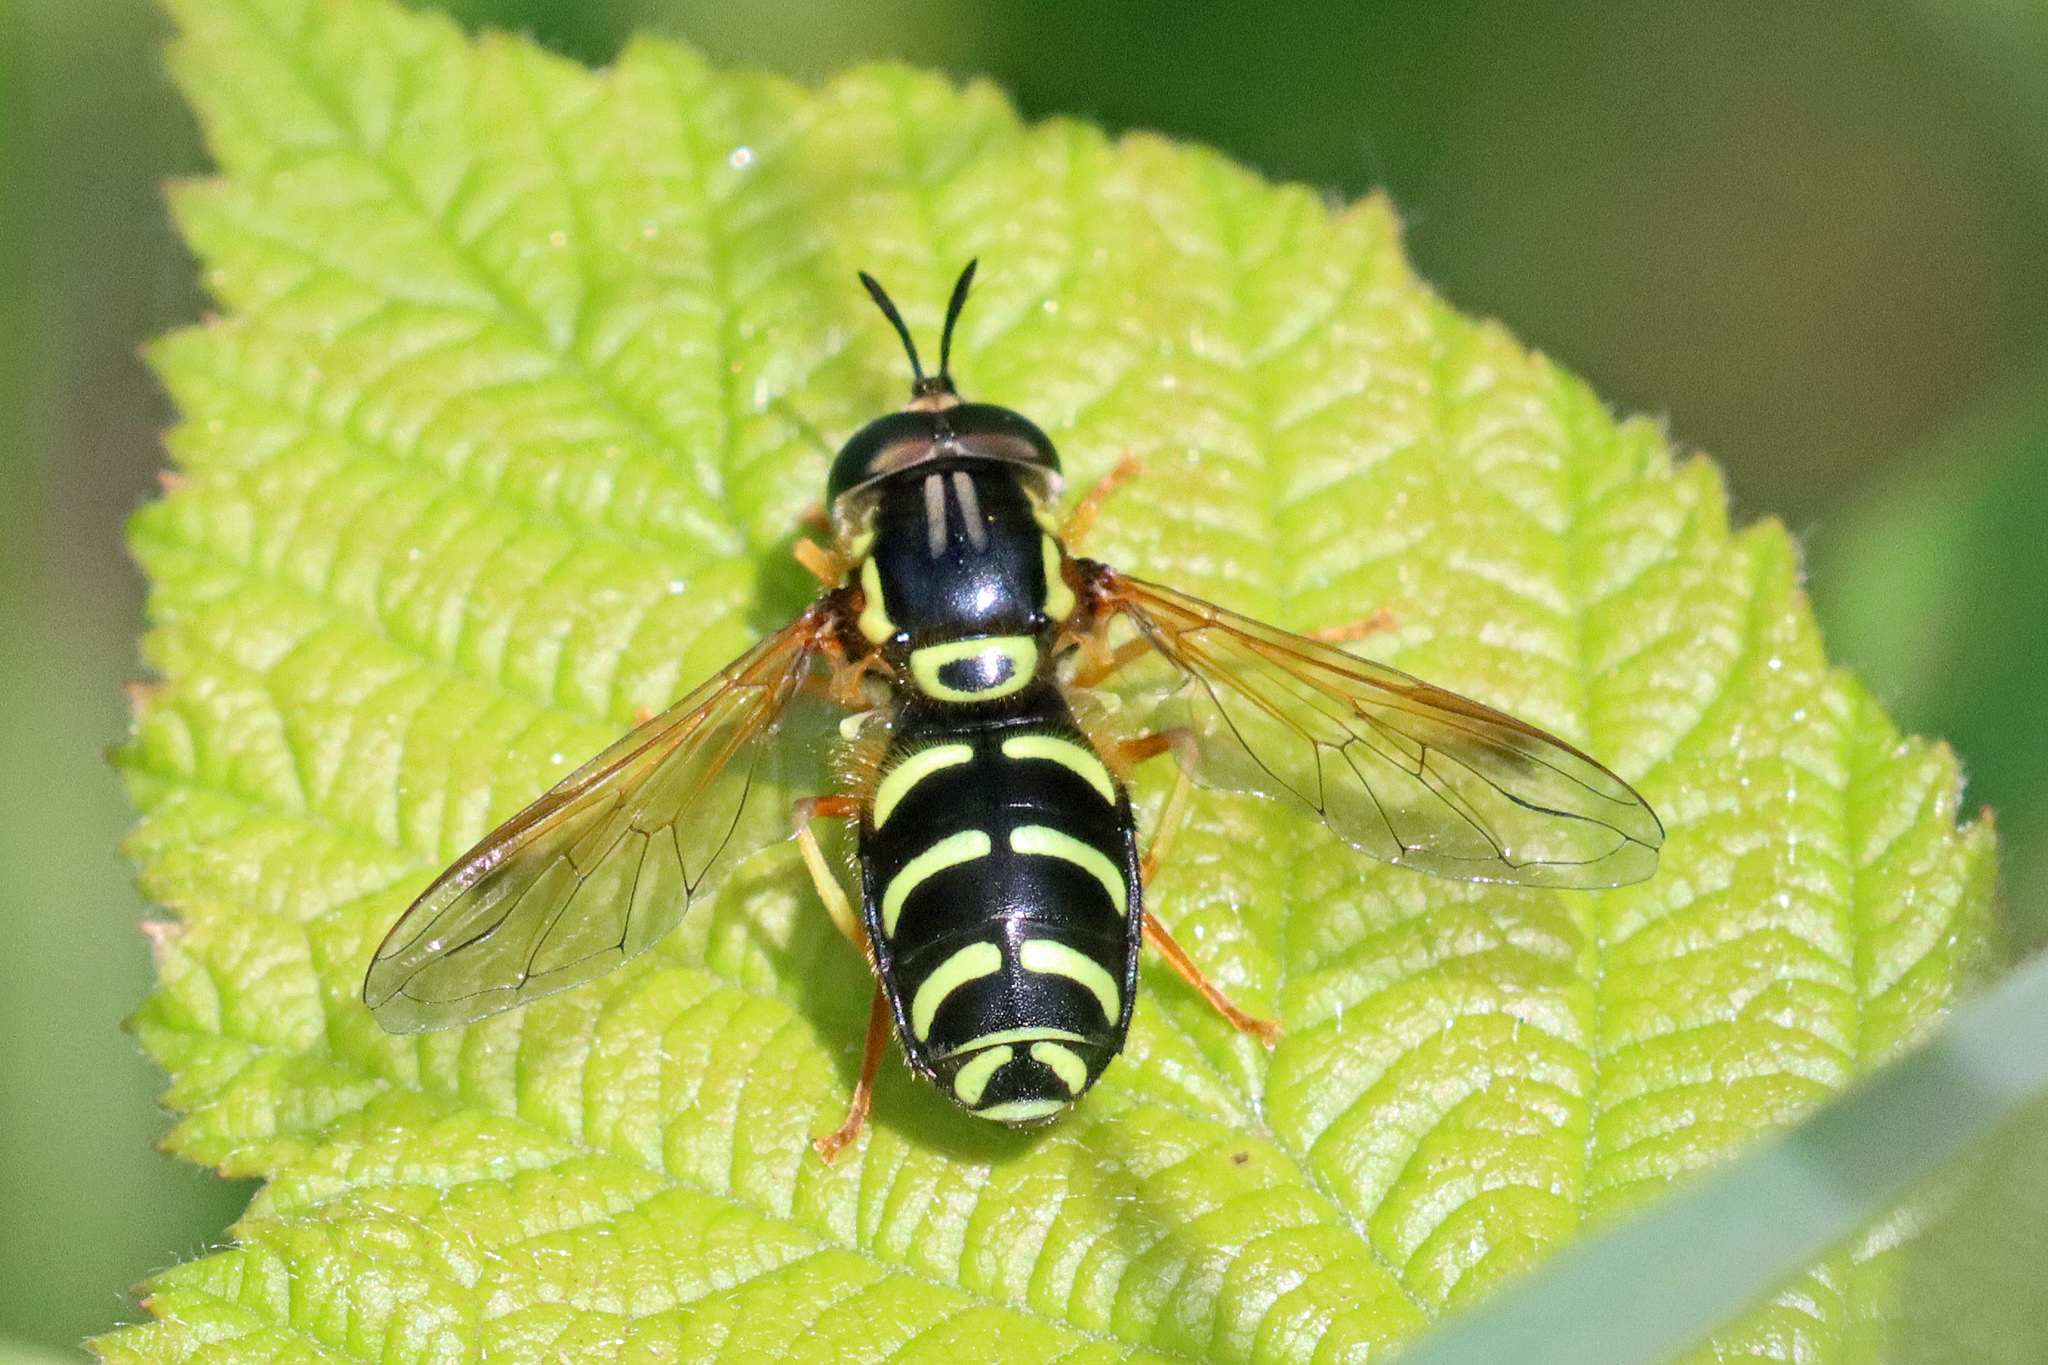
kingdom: Animalia
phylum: Arthropoda
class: Insecta
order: Diptera
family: Syrphidae
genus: Chrysotoxum
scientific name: Chrysotoxum festivum
